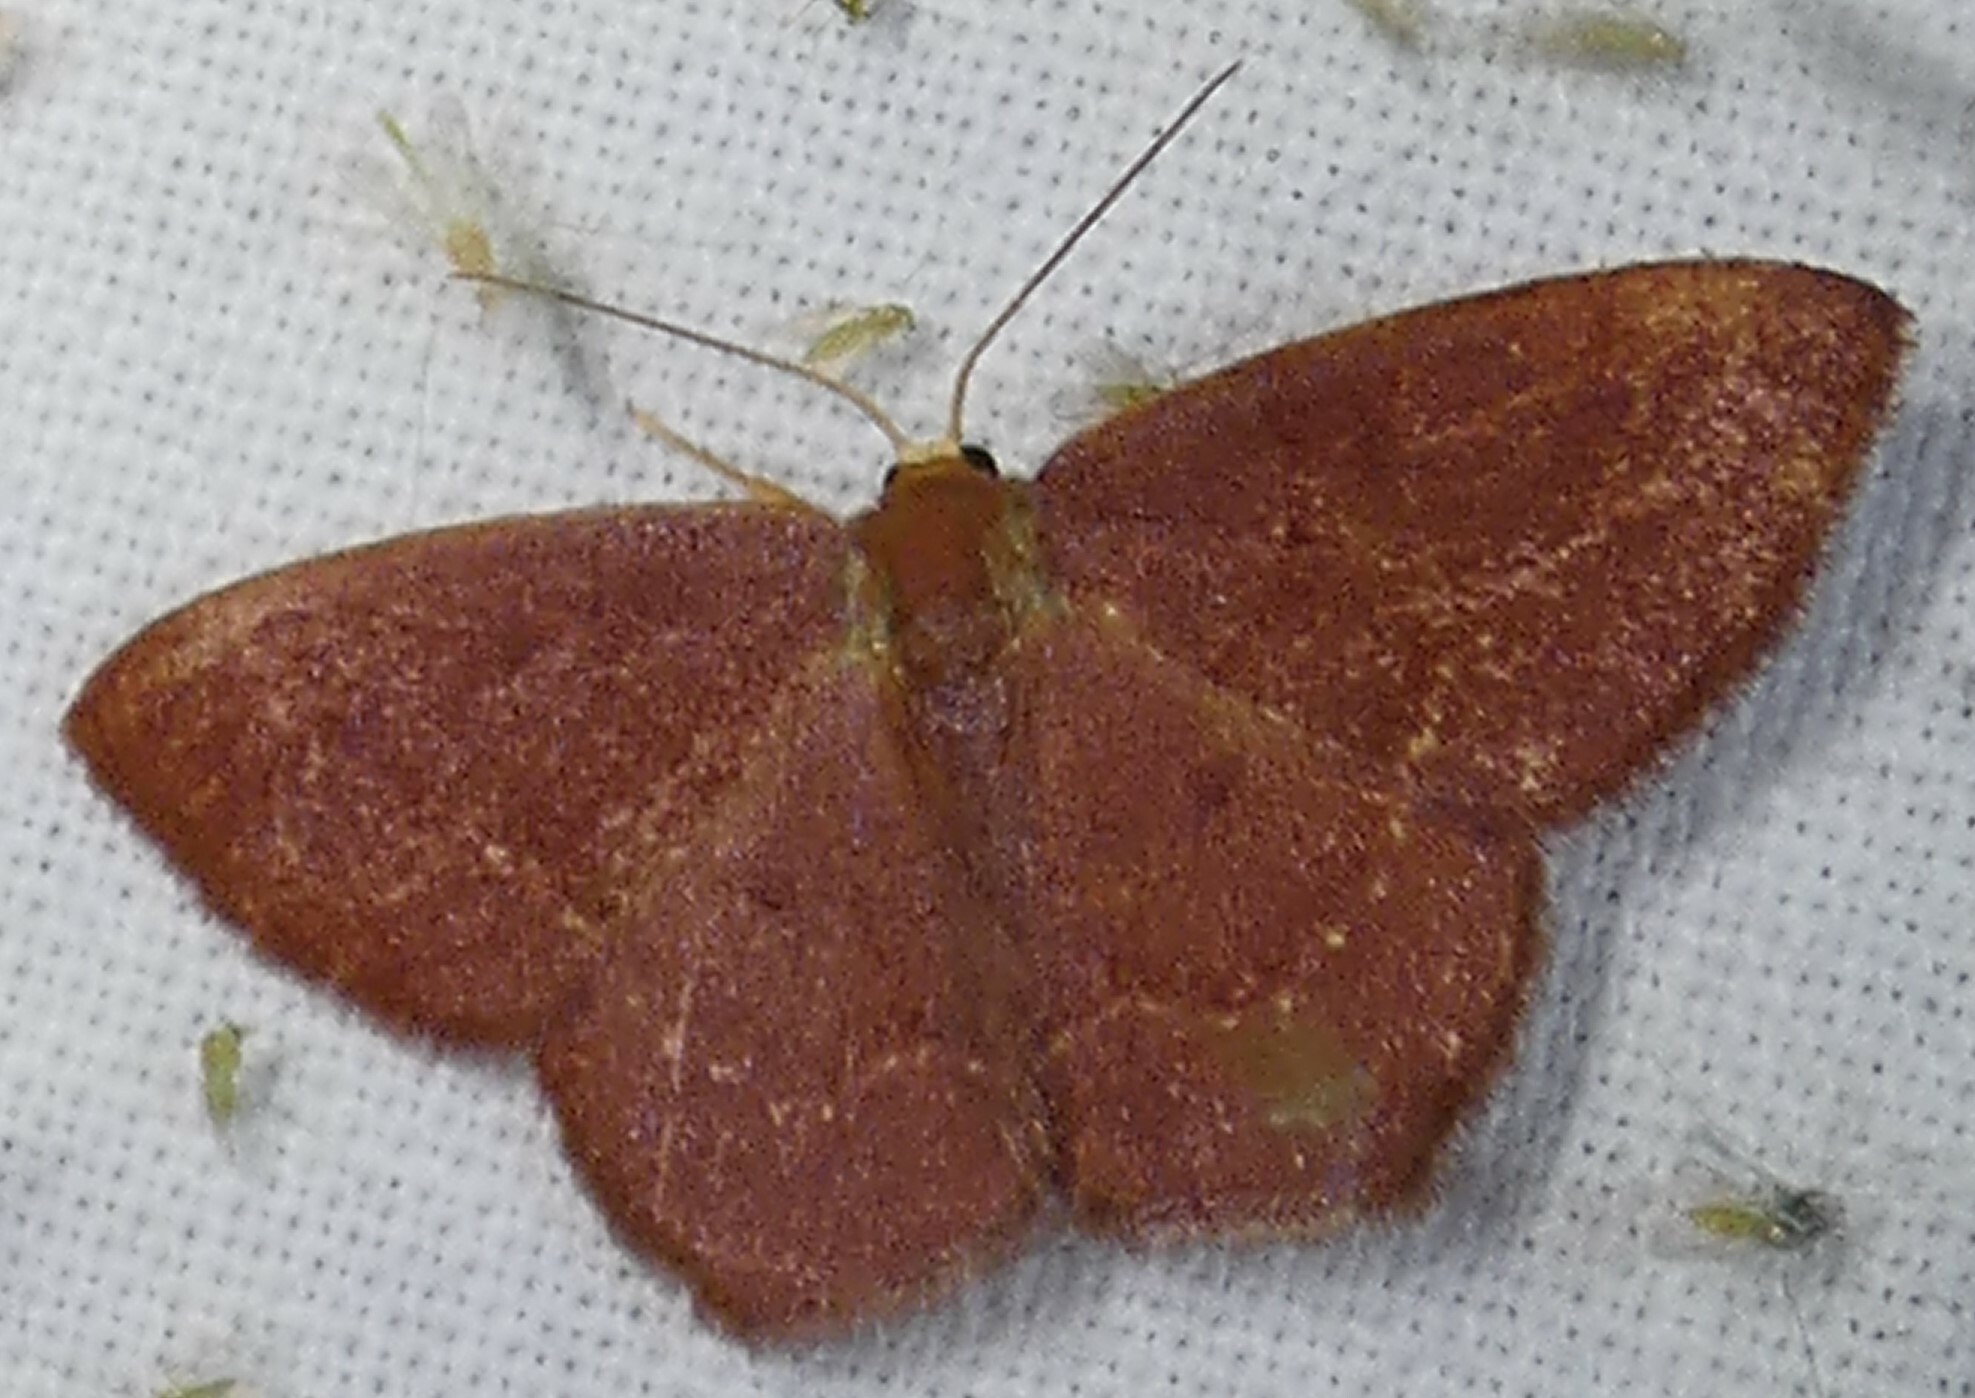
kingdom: Animalia
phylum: Arthropoda
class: Insecta
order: Lepidoptera
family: Geometridae
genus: Thalera
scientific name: Thalera pistasciaria
